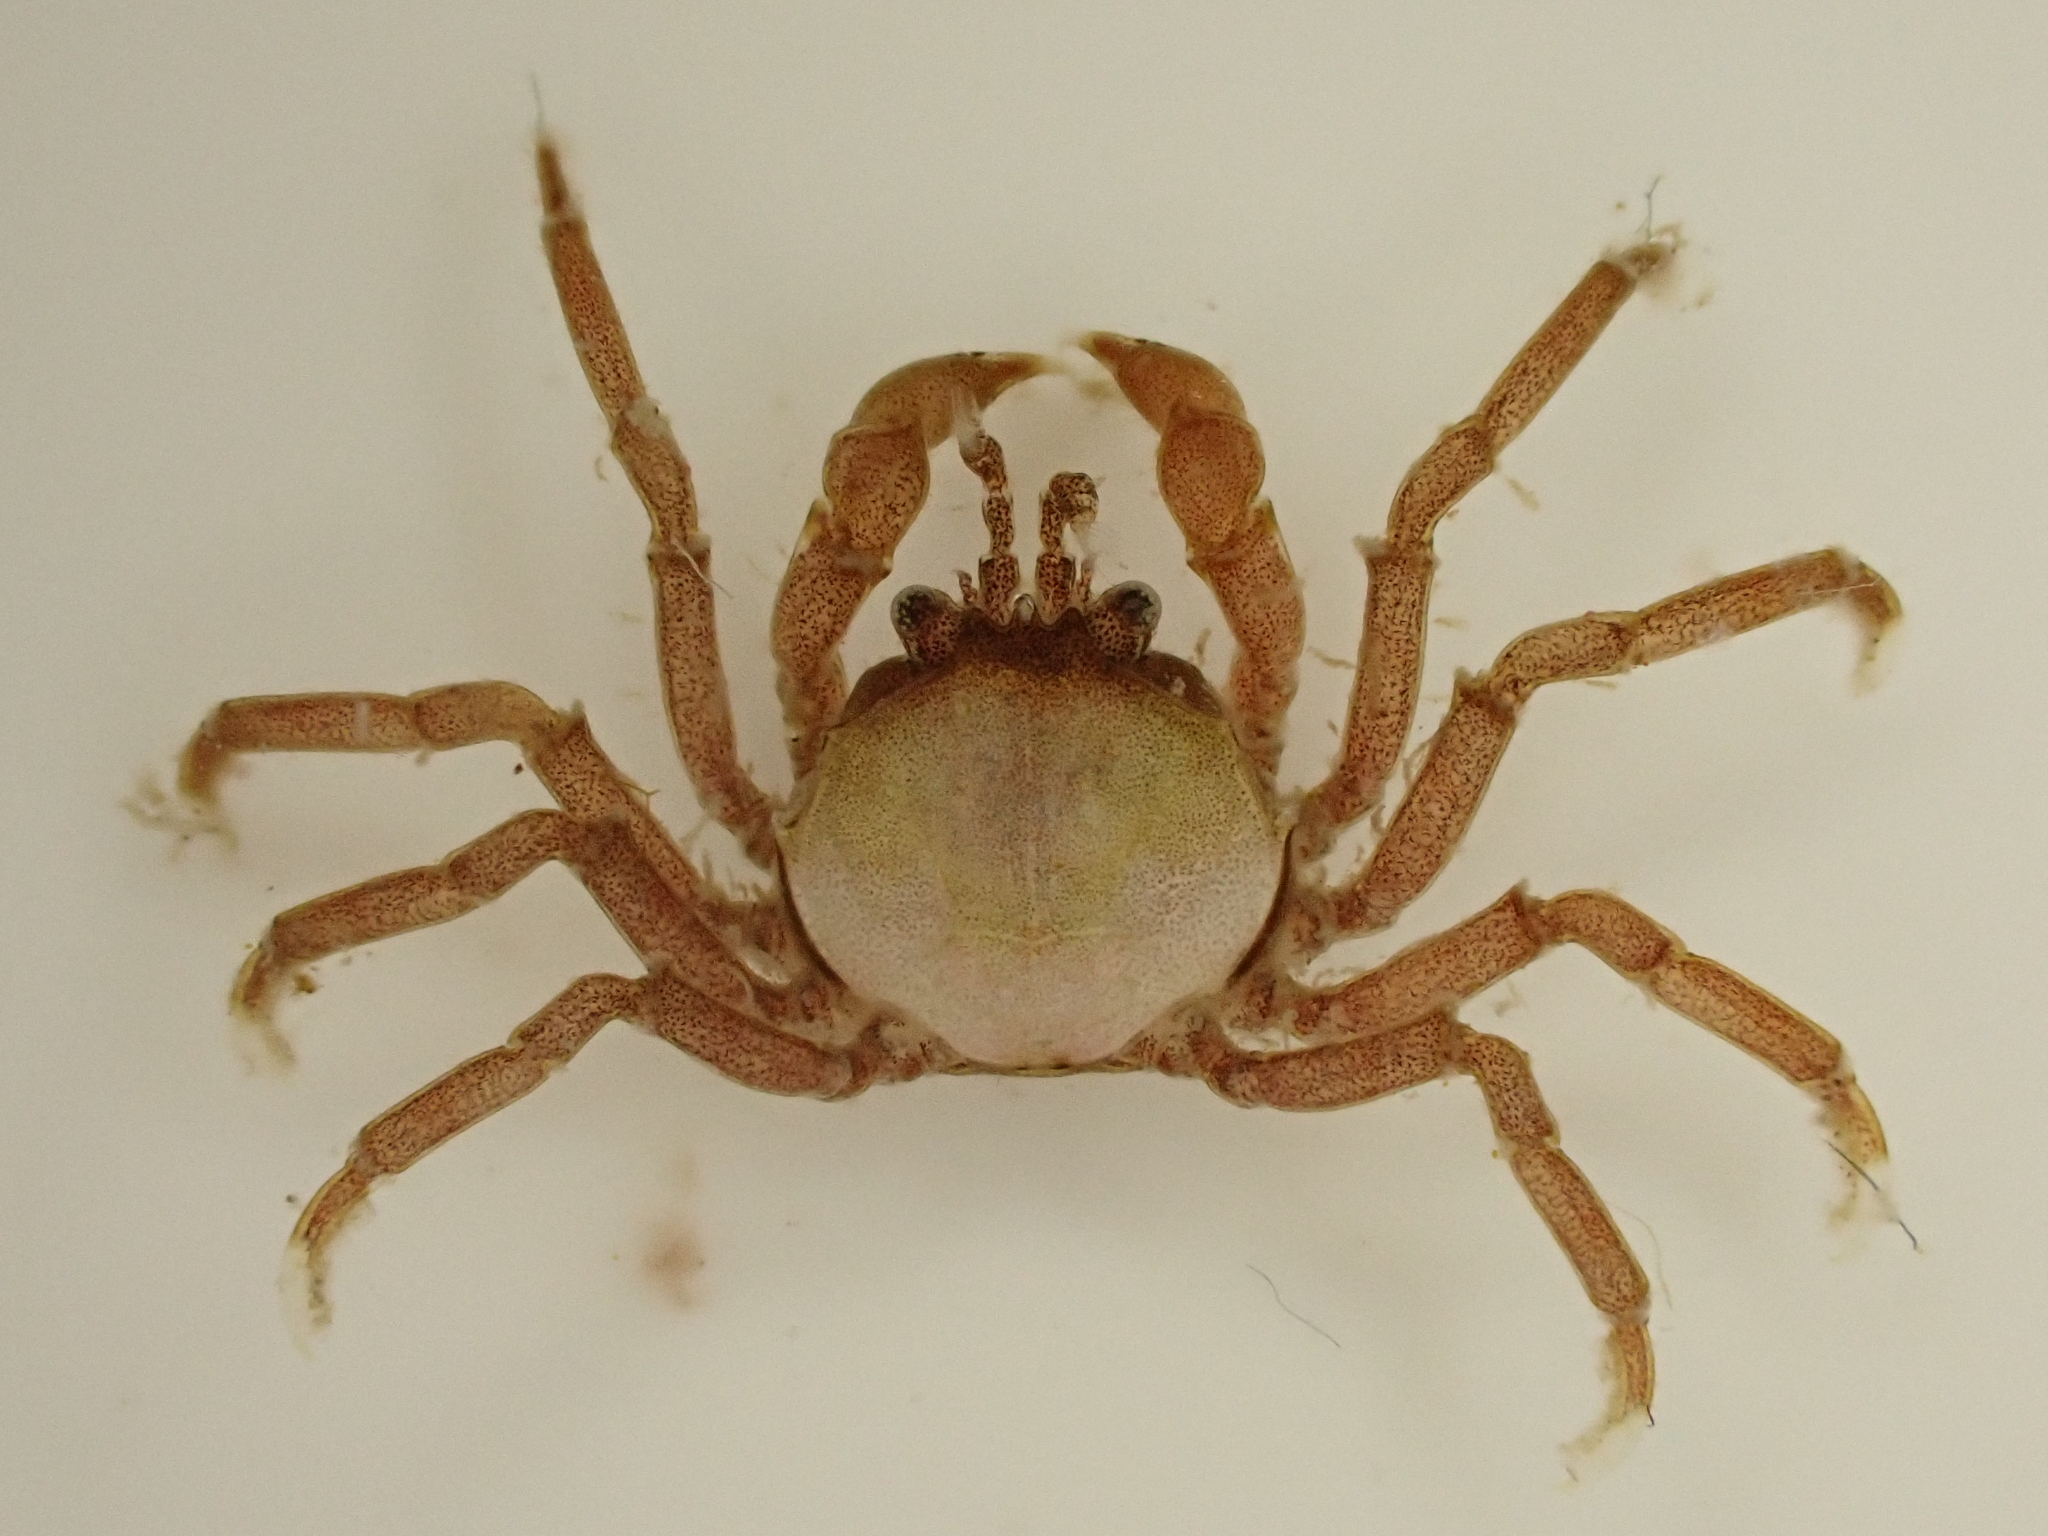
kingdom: Animalia
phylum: Arthropoda
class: Malacostraca
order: Decapoda
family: Hymenosomatidae
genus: Halicarcinus
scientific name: Halicarcinus cookii
